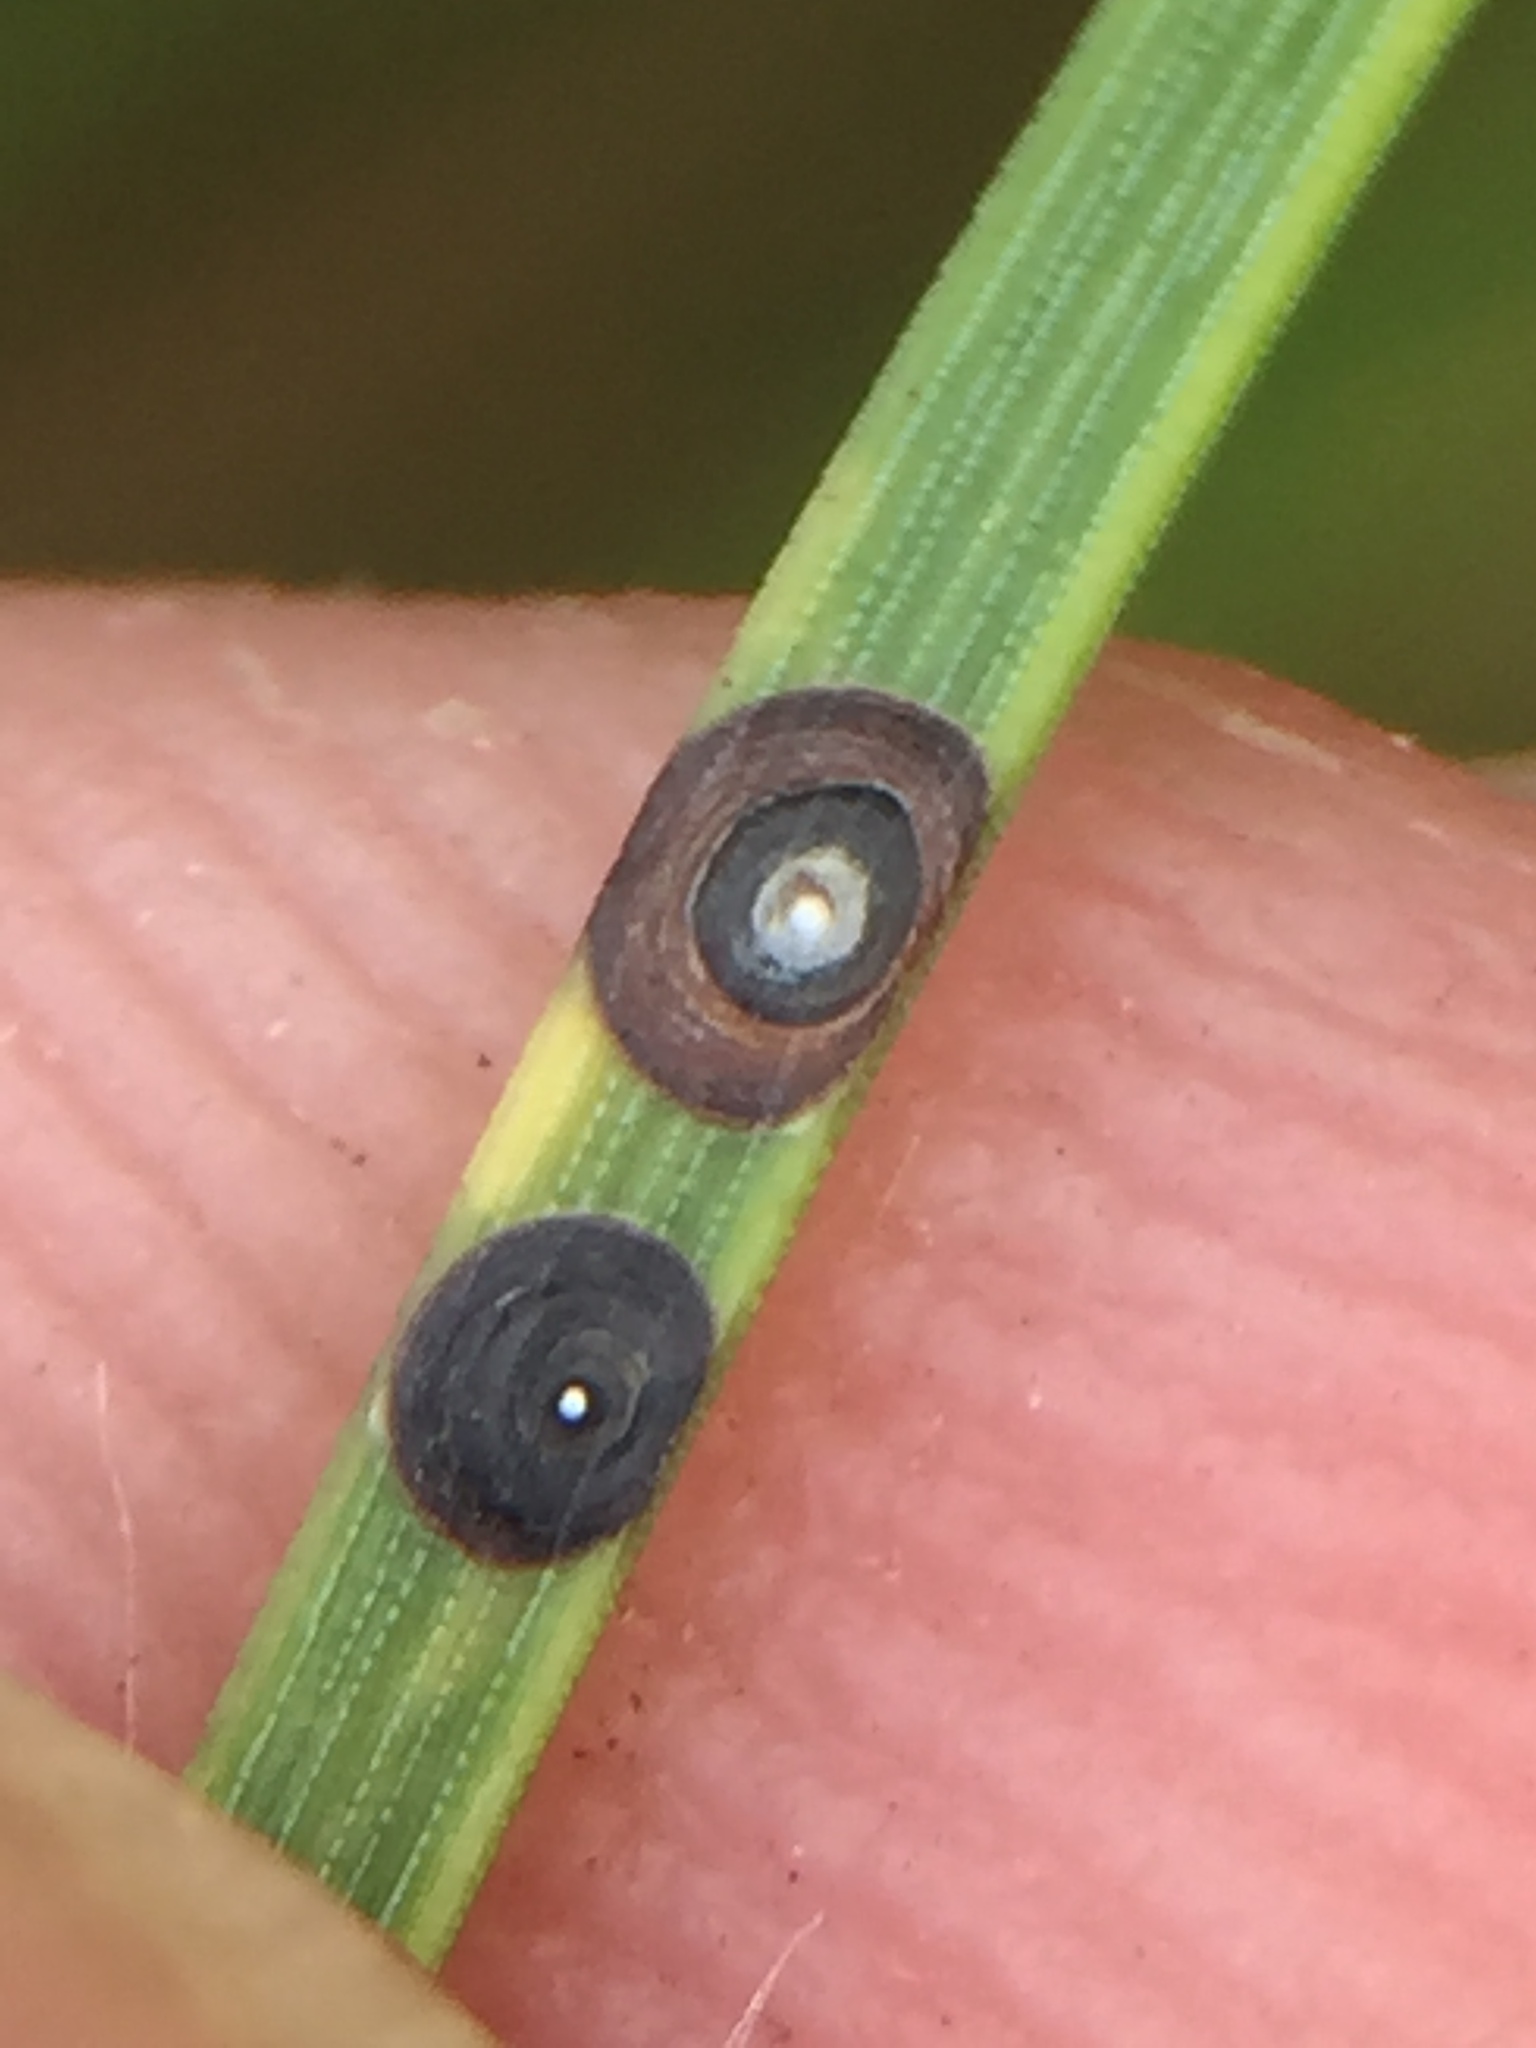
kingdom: Animalia
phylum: Arthropoda
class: Insecta
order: Hemiptera
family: Diaspididae
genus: Lindingaspis
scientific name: Lindingaspis rossi
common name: Araucaria black scale
